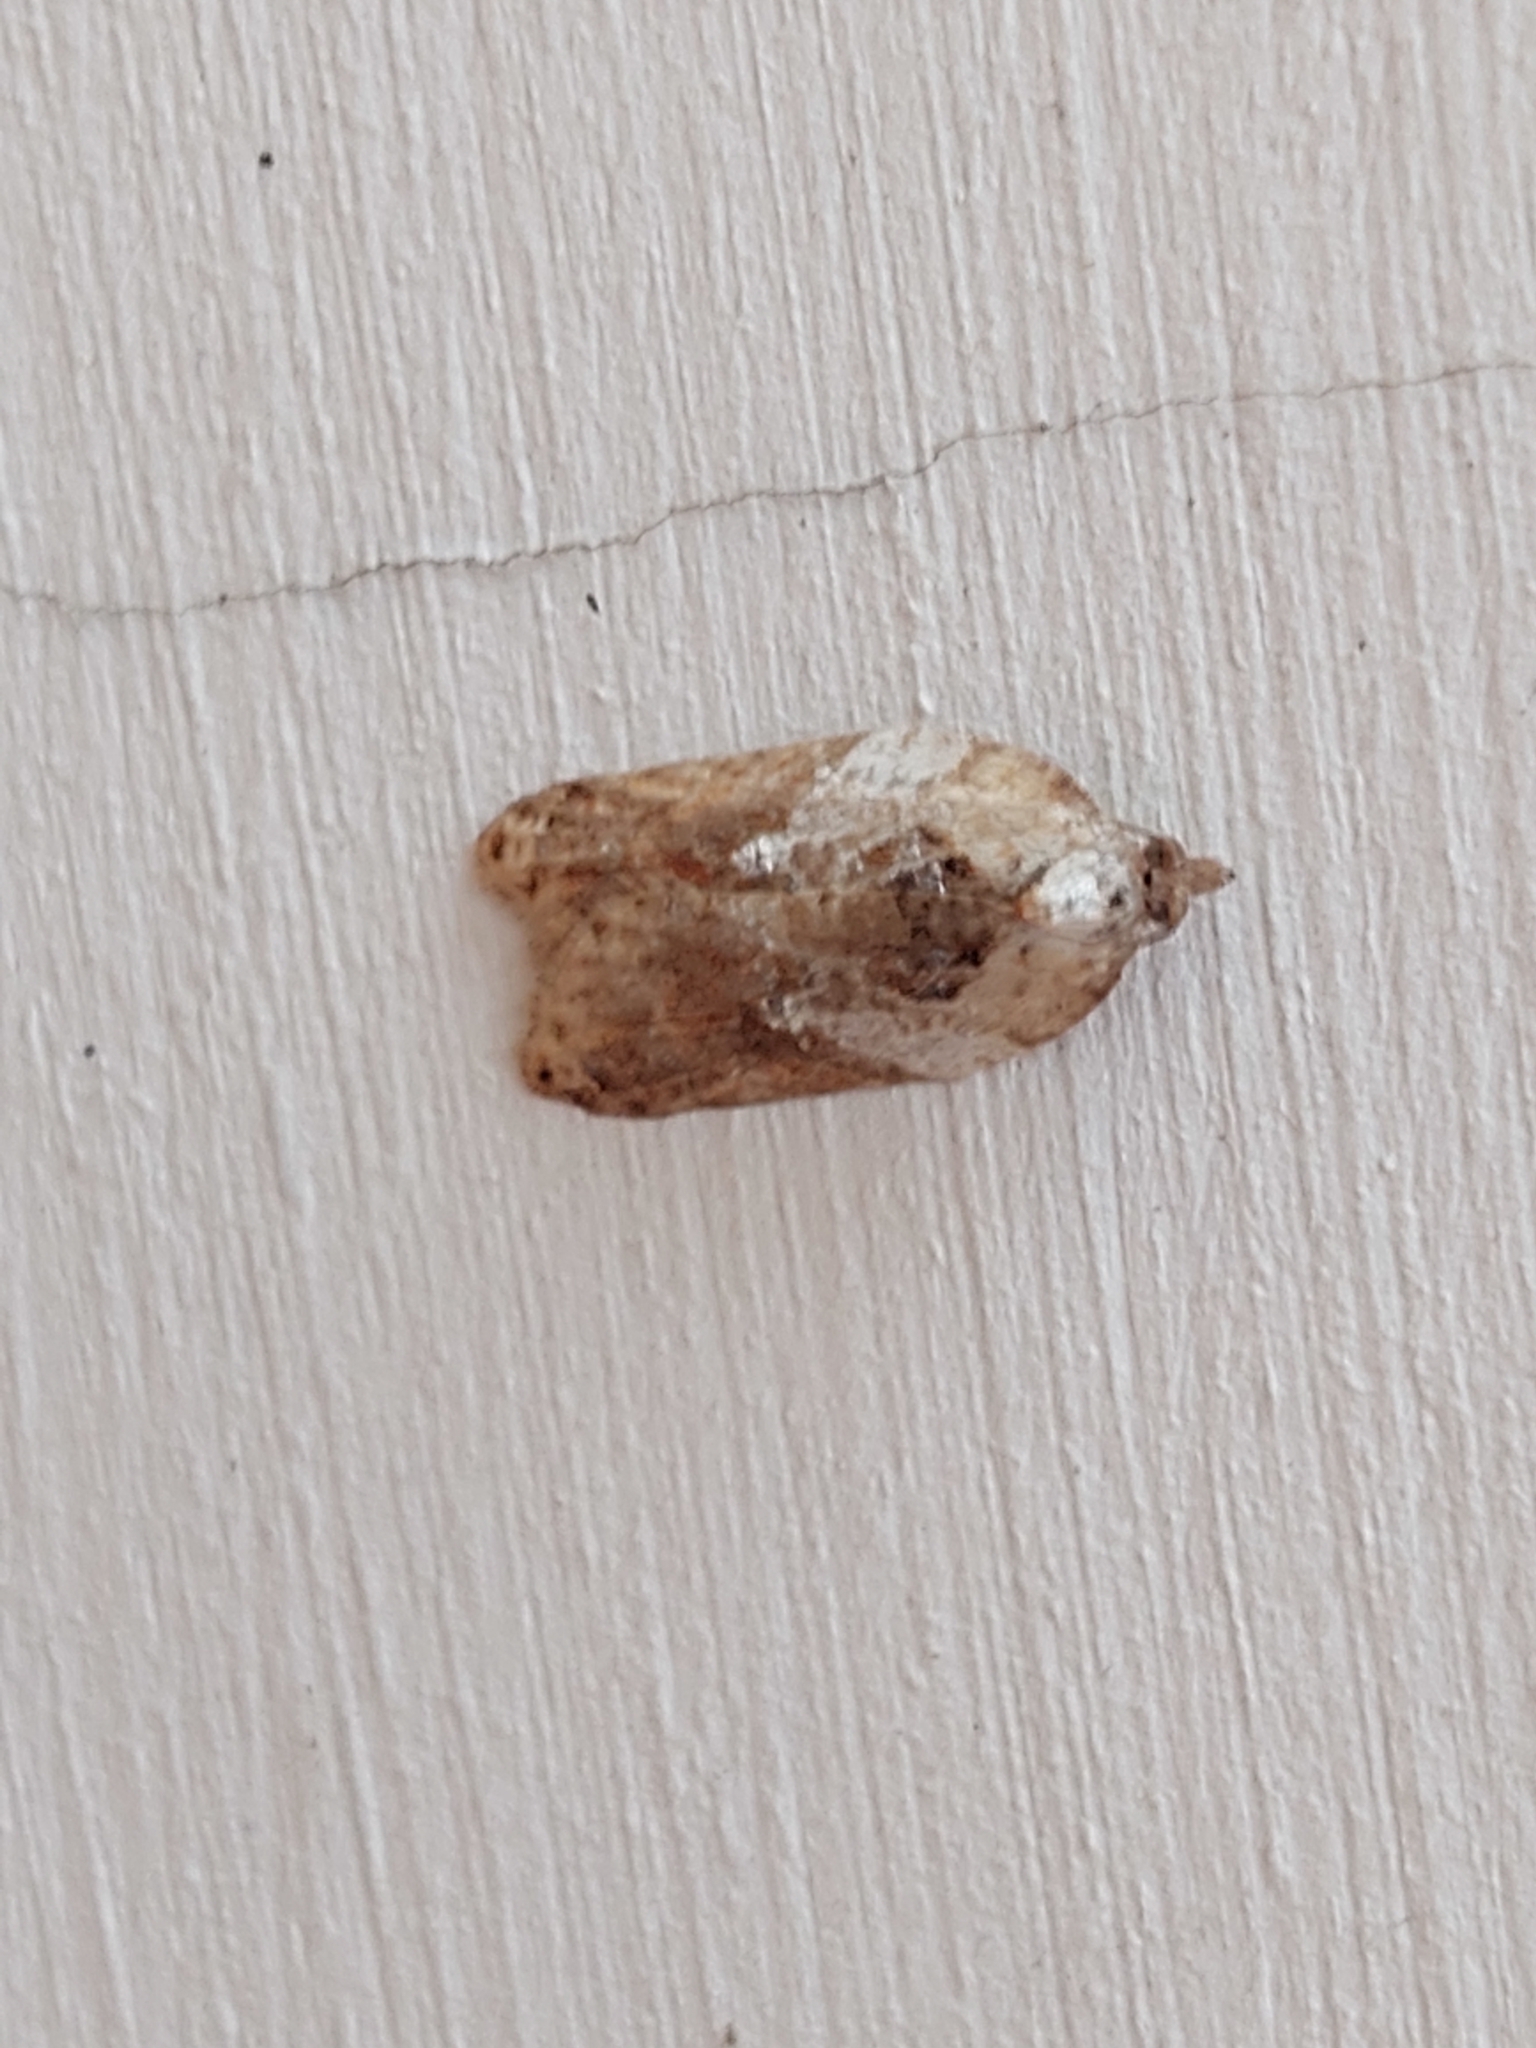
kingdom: Animalia
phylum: Arthropoda
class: Insecta
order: Lepidoptera
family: Tortricidae
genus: Acleris
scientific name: Acleris variegana
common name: Garden rose tortrix
